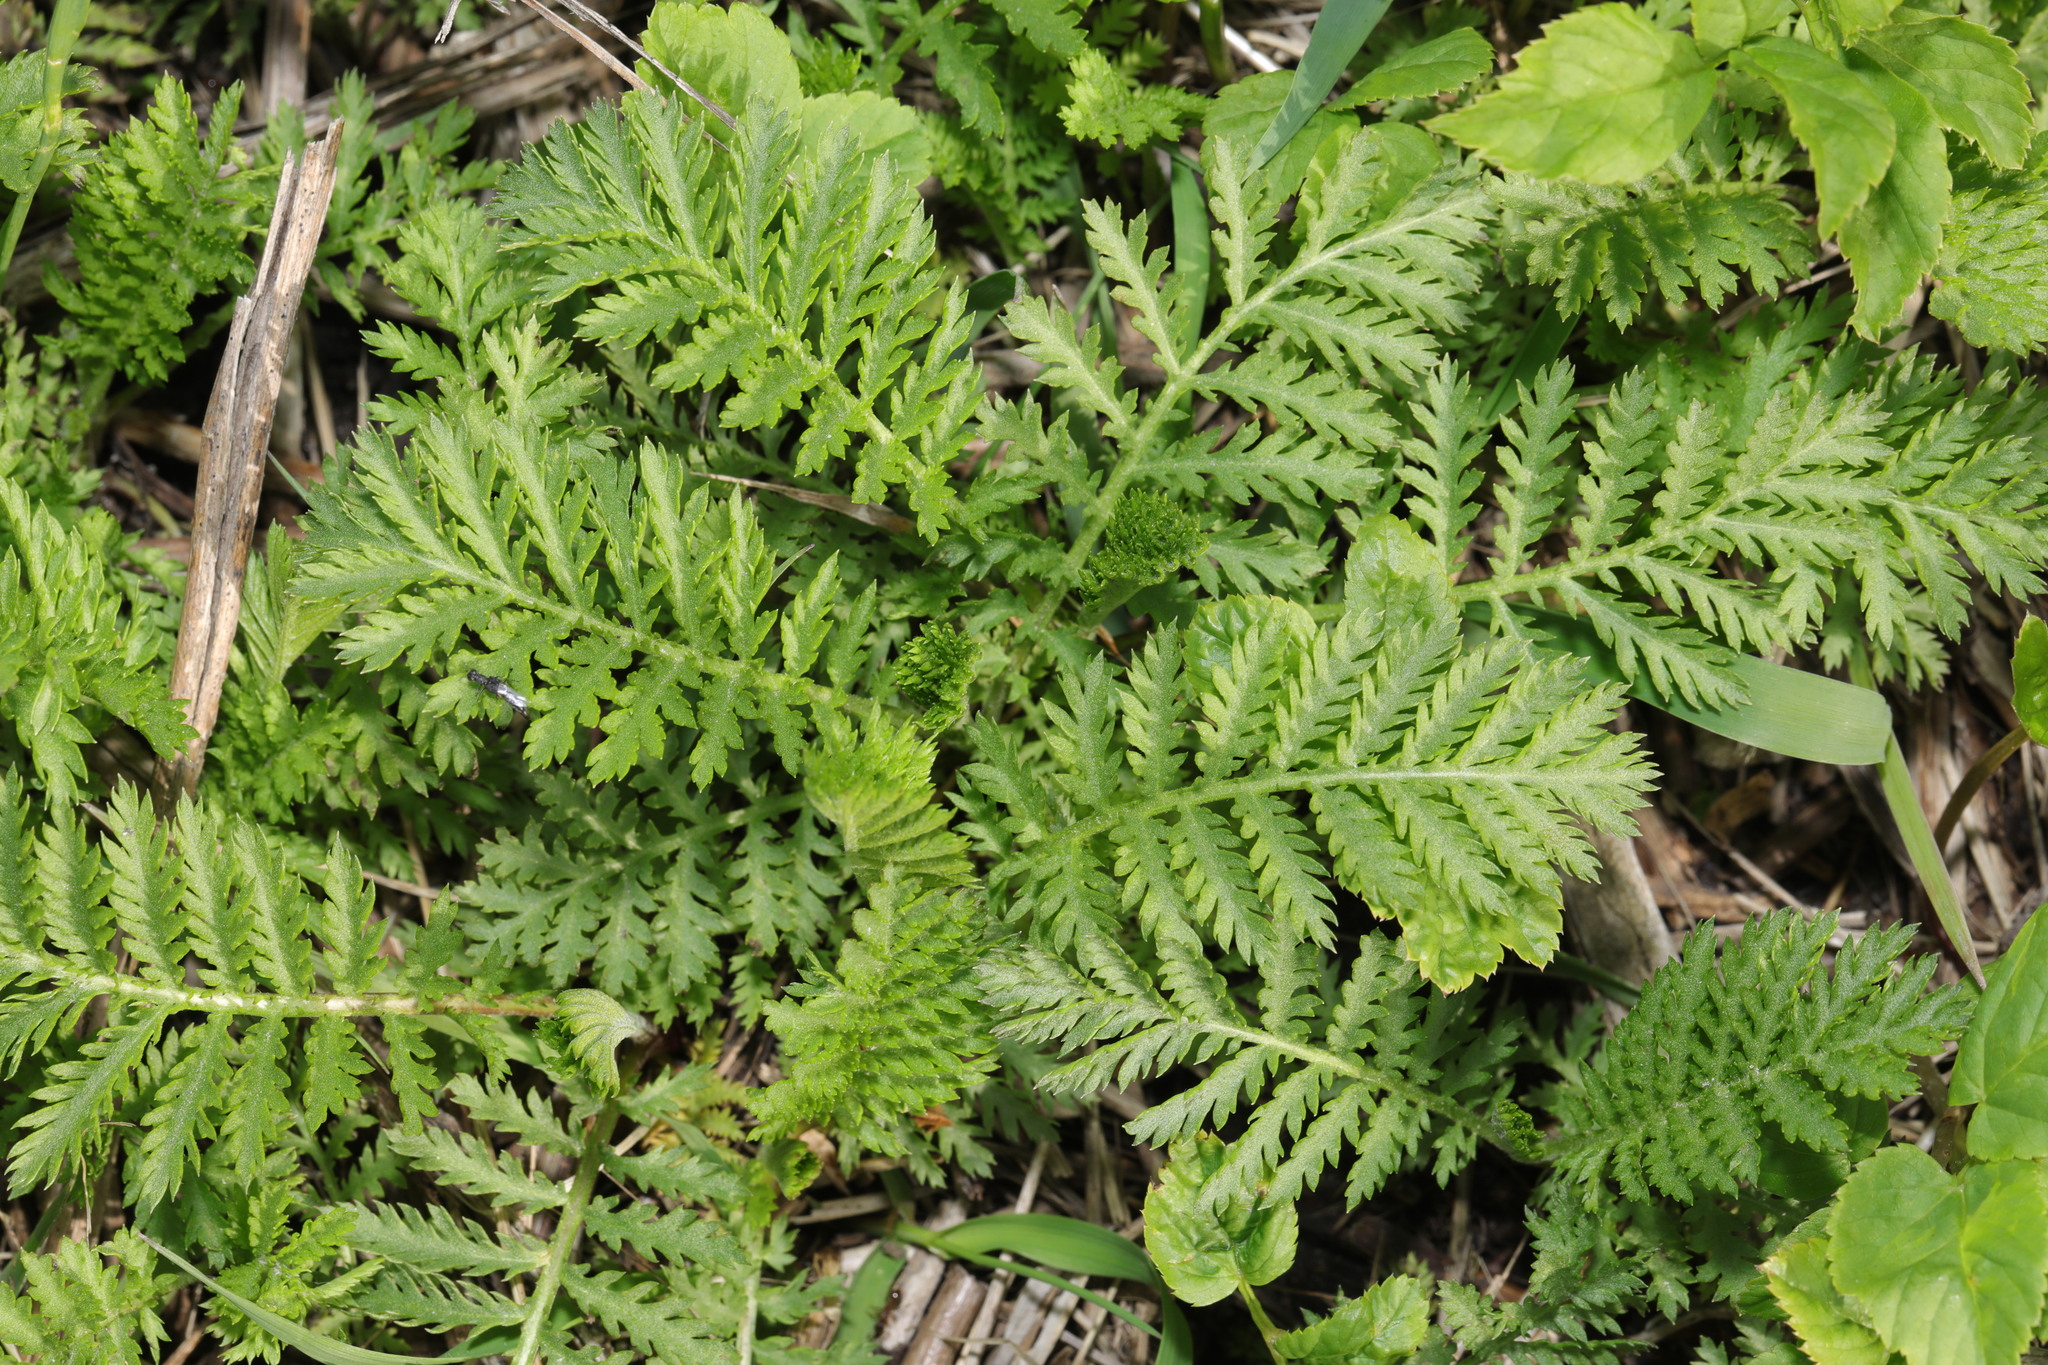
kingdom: Plantae
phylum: Tracheophyta
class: Magnoliopsida
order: Asterales
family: Asteraceae
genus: Tanacetum
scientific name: Tanacetum vulgare
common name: Common tansy
